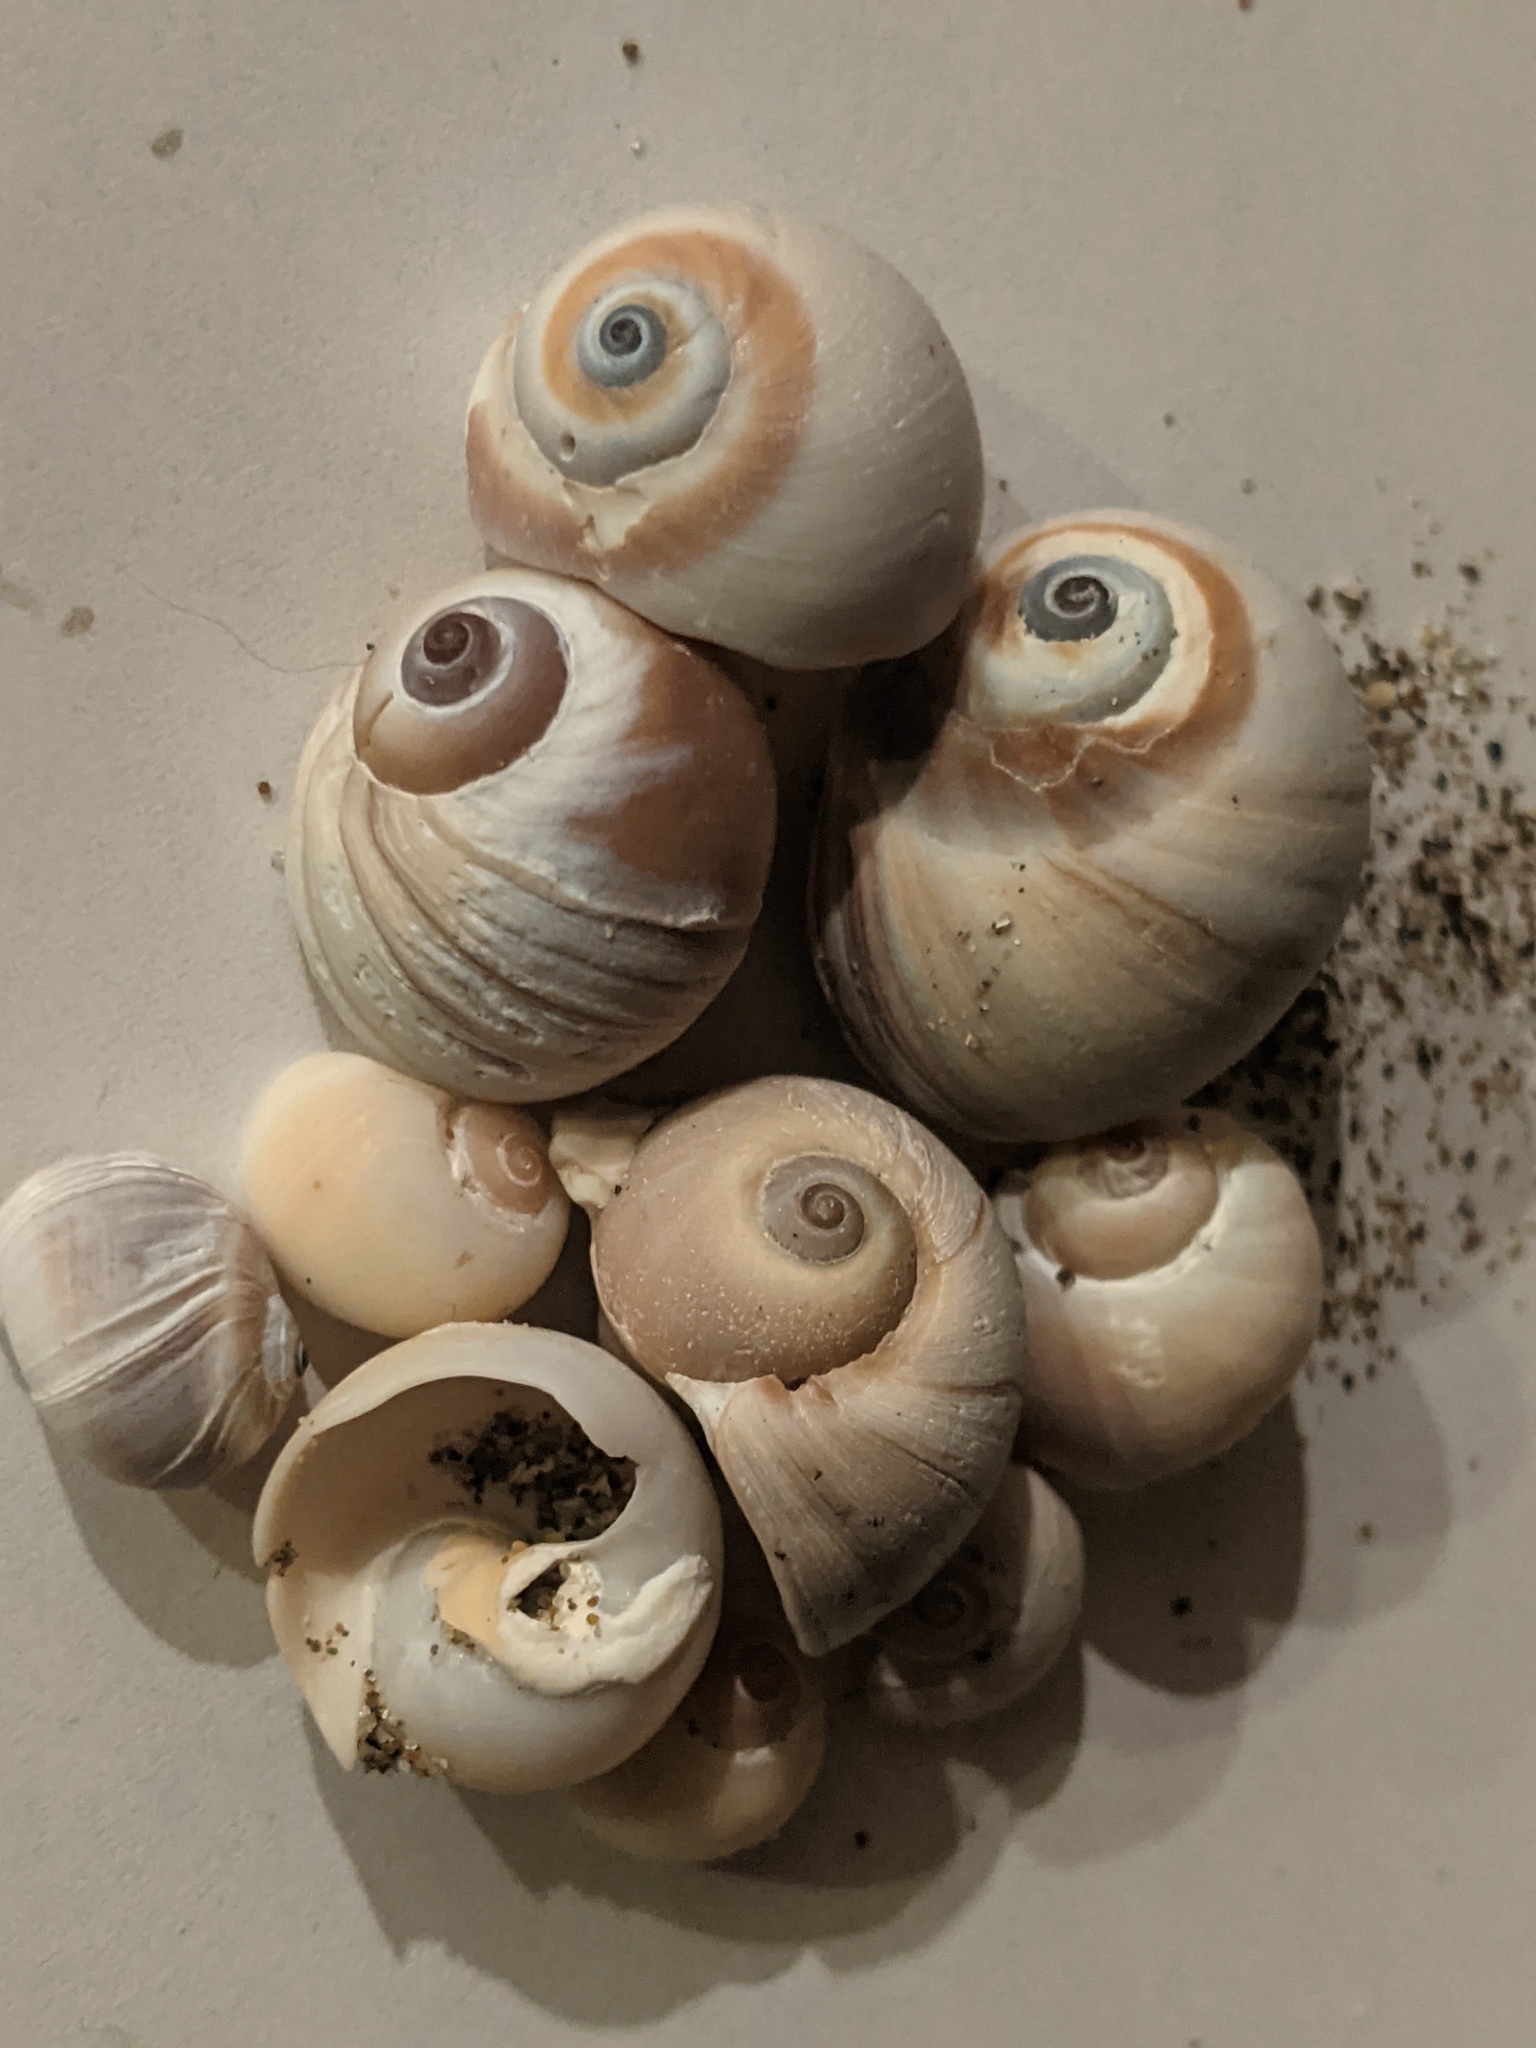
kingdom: Animalia
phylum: Mollusca
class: Gastropoda
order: Littorinimorpha
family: Naticidae
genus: Glossaulax
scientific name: Glossaulax reclusiana
